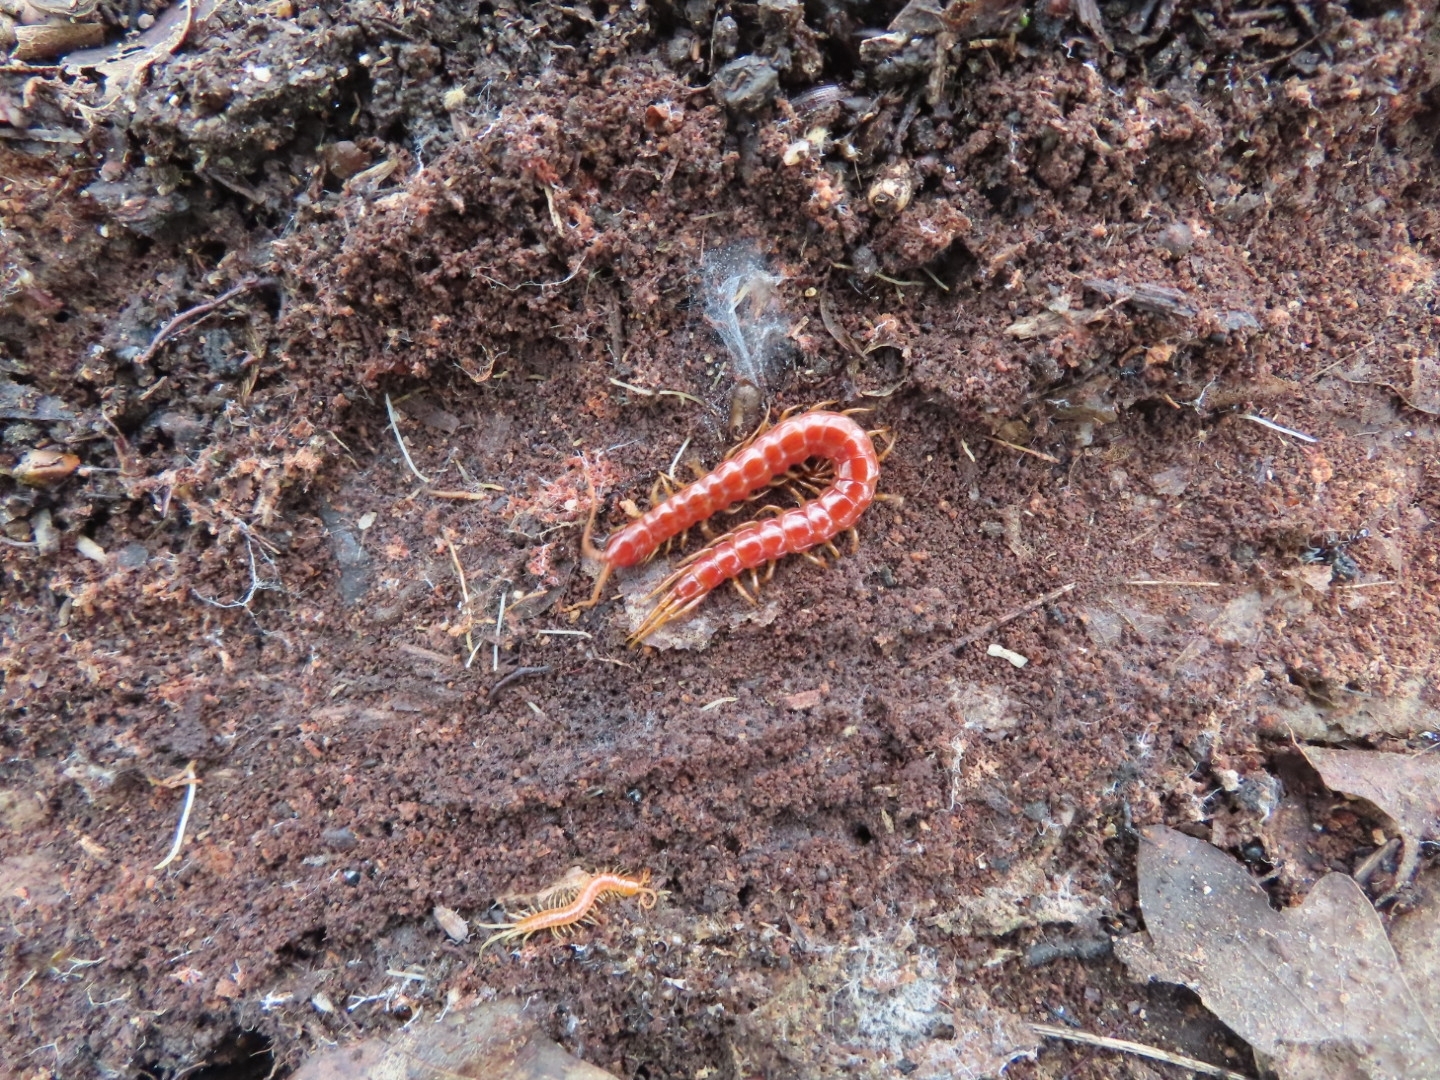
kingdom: Animalia
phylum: Arthropoda
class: Chilopoda
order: Scolopendromorpha
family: Scolopocryptopidae
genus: Scolopocryptops
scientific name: Scolopocryptops sexspinosus
